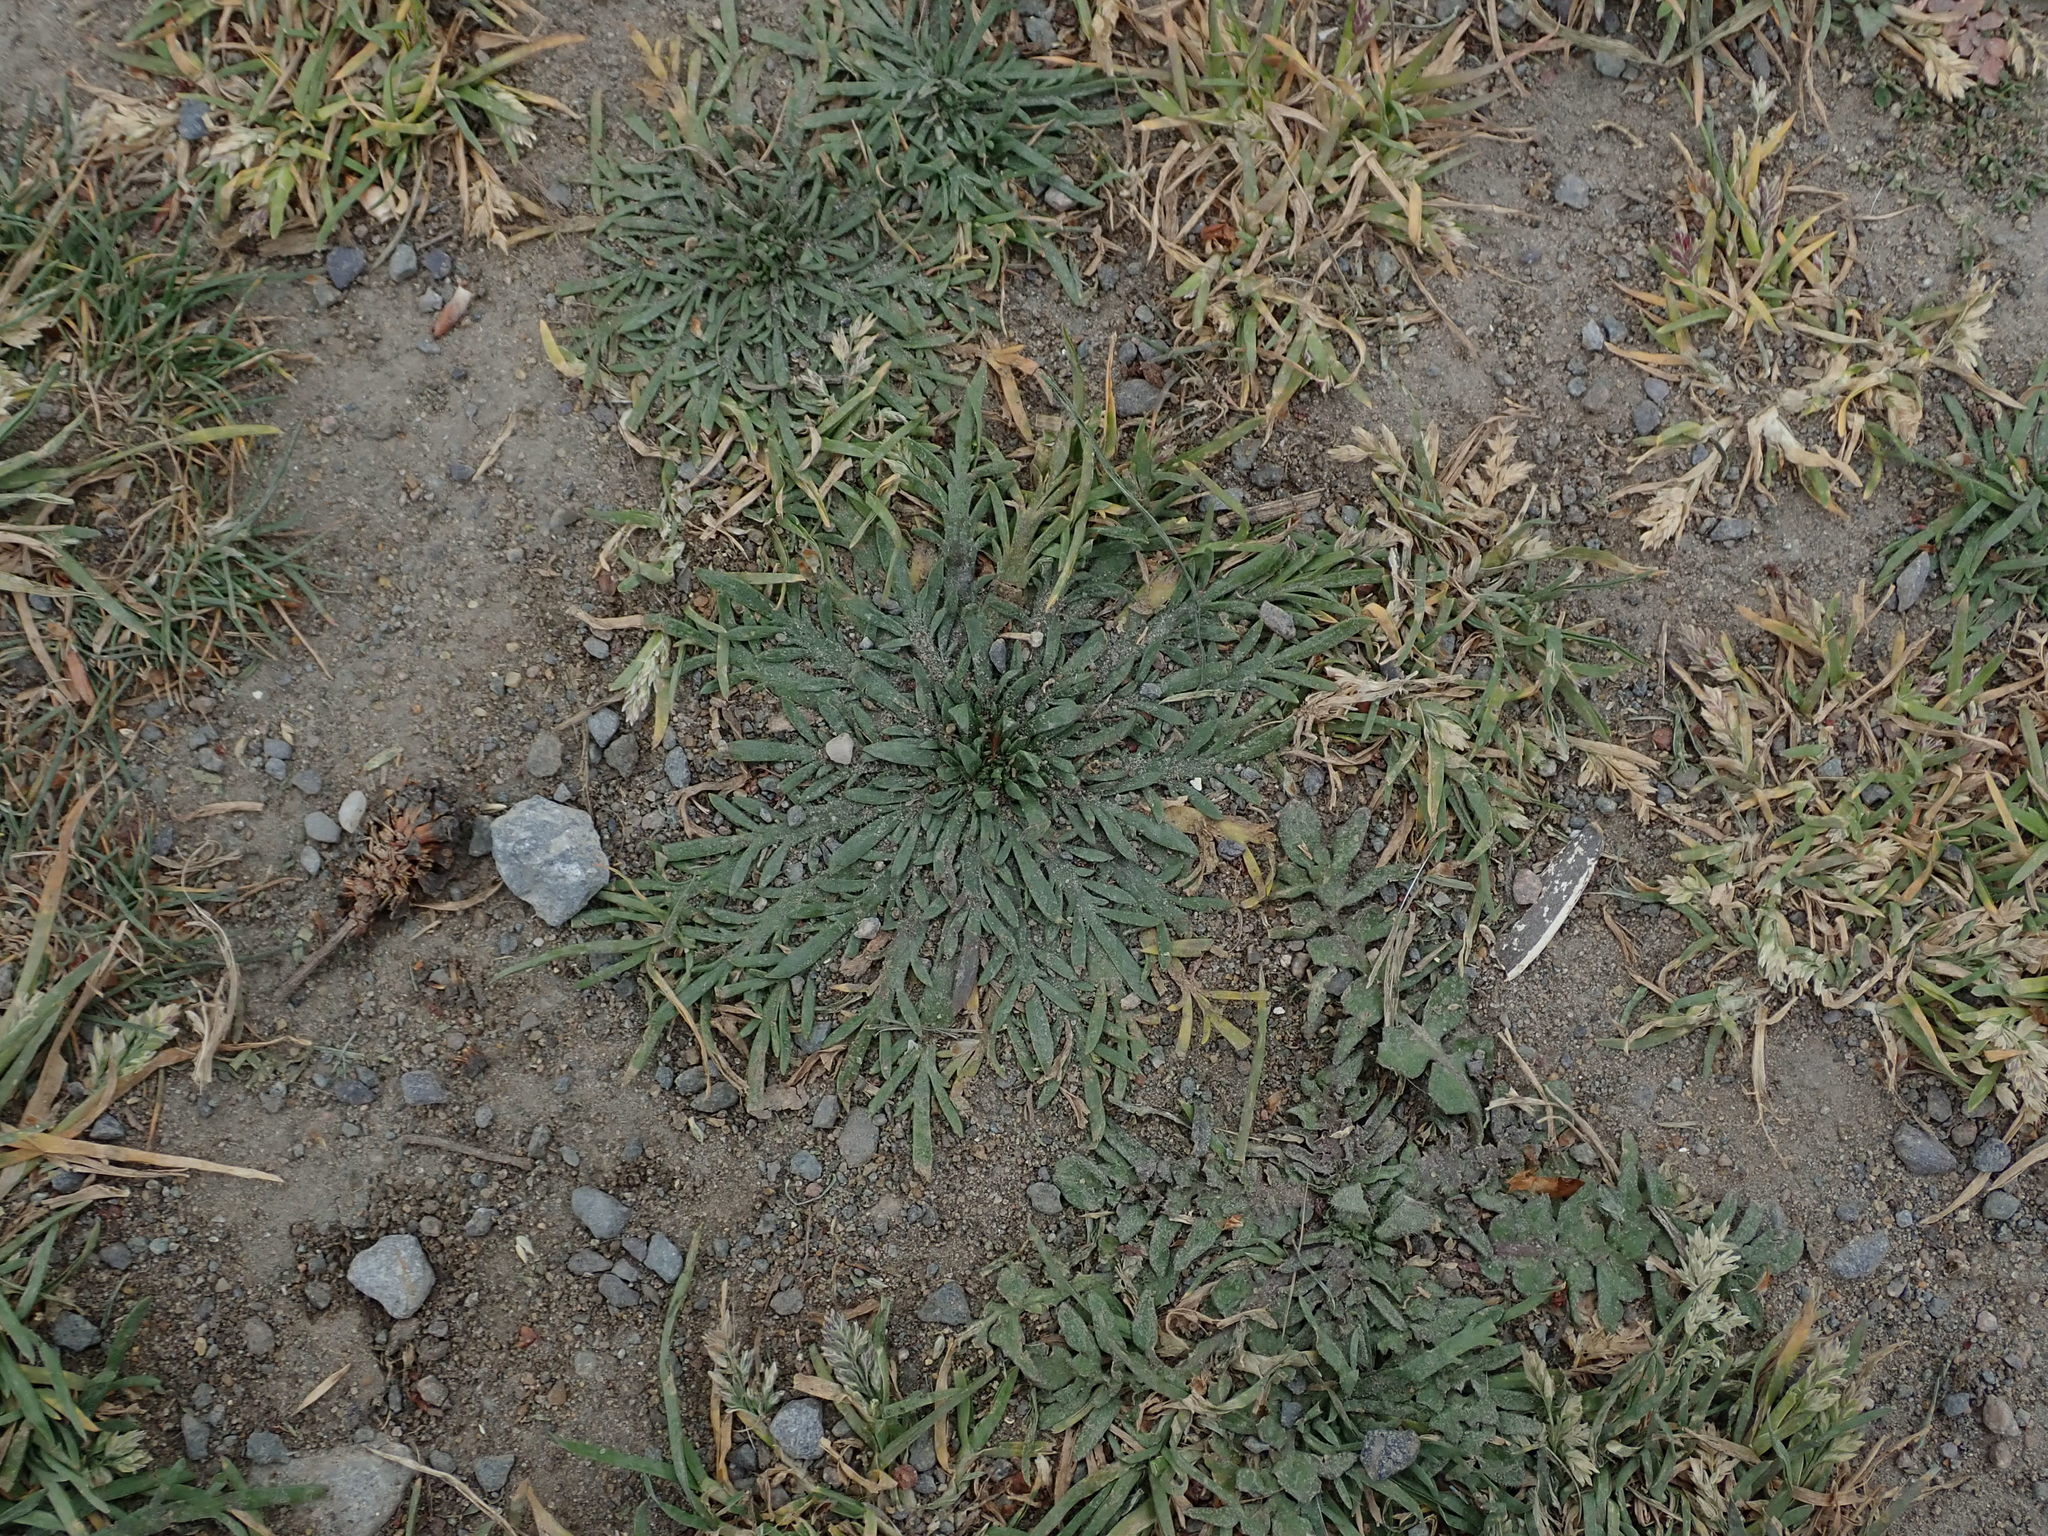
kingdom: Plantae
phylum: Tracheophyta
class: Magnoliopsida
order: Lamiales
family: Plantaginaceae
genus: Plantago
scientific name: Plantago coronopus
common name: Buck's-horn plantain
